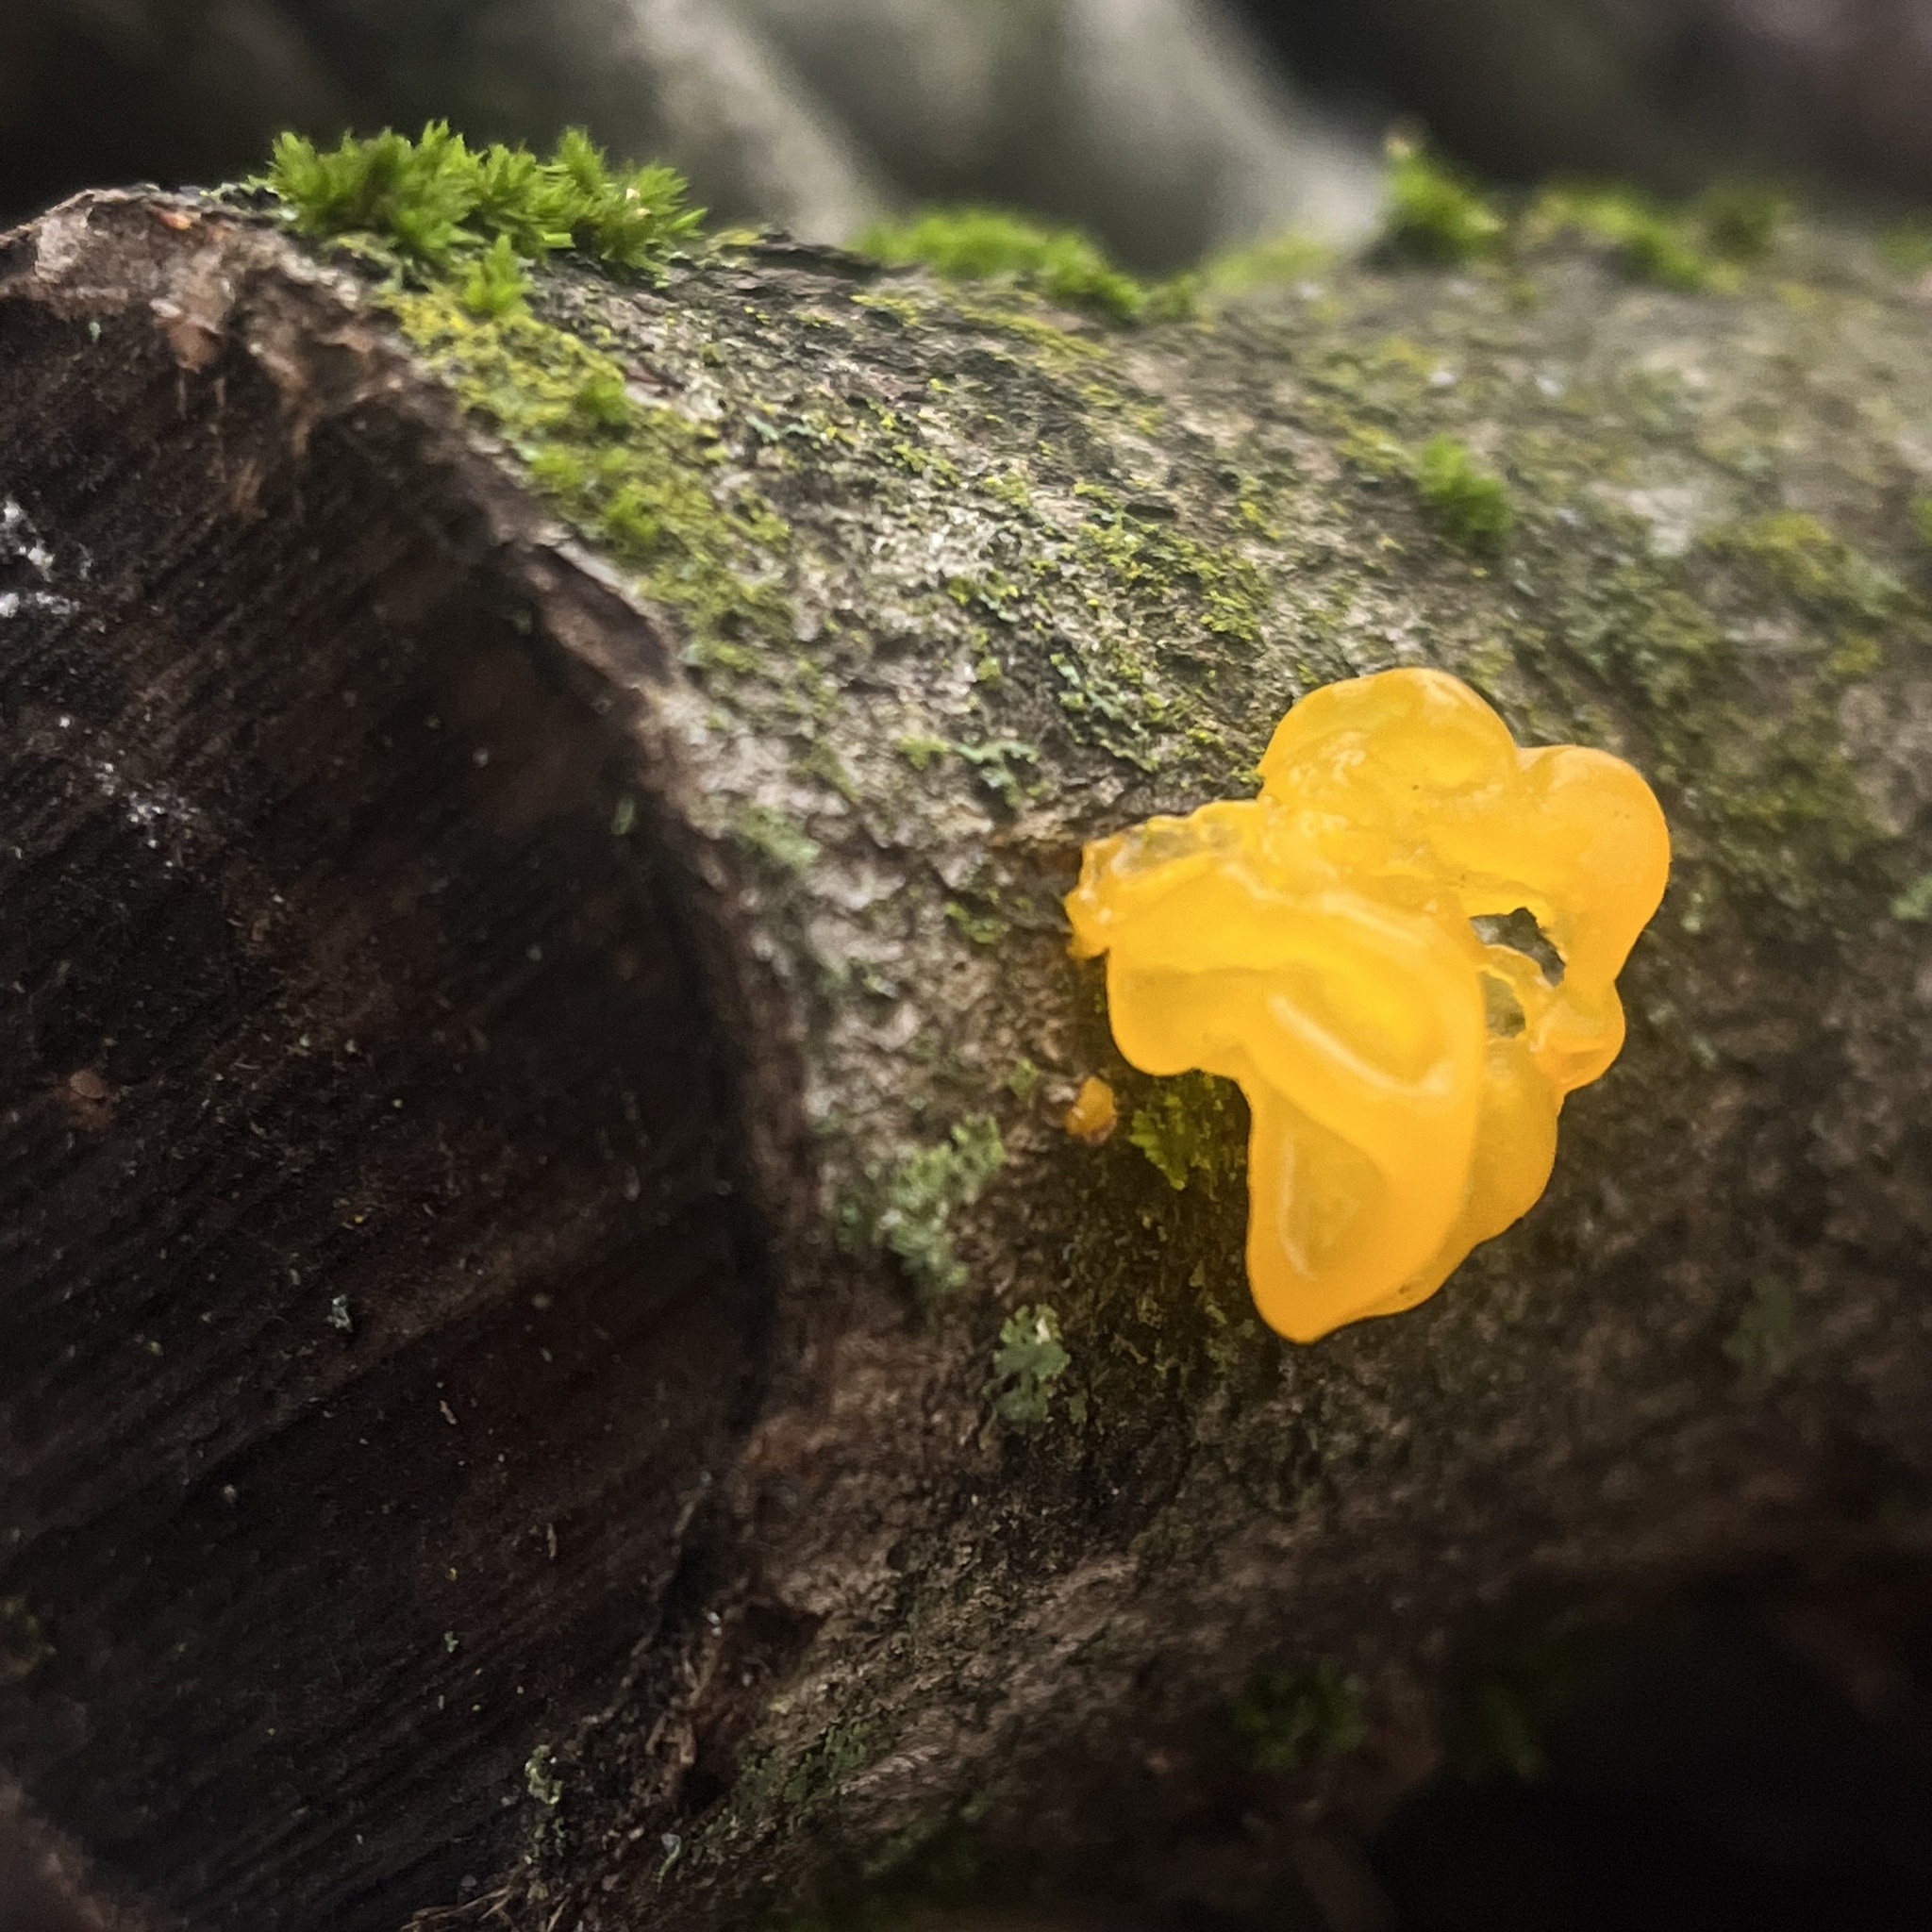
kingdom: Fungi
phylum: Basidiomycota
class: Tremellomycetes
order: Tremellales
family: Tremellaceae
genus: Tremella
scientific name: Tremella mesenterica
